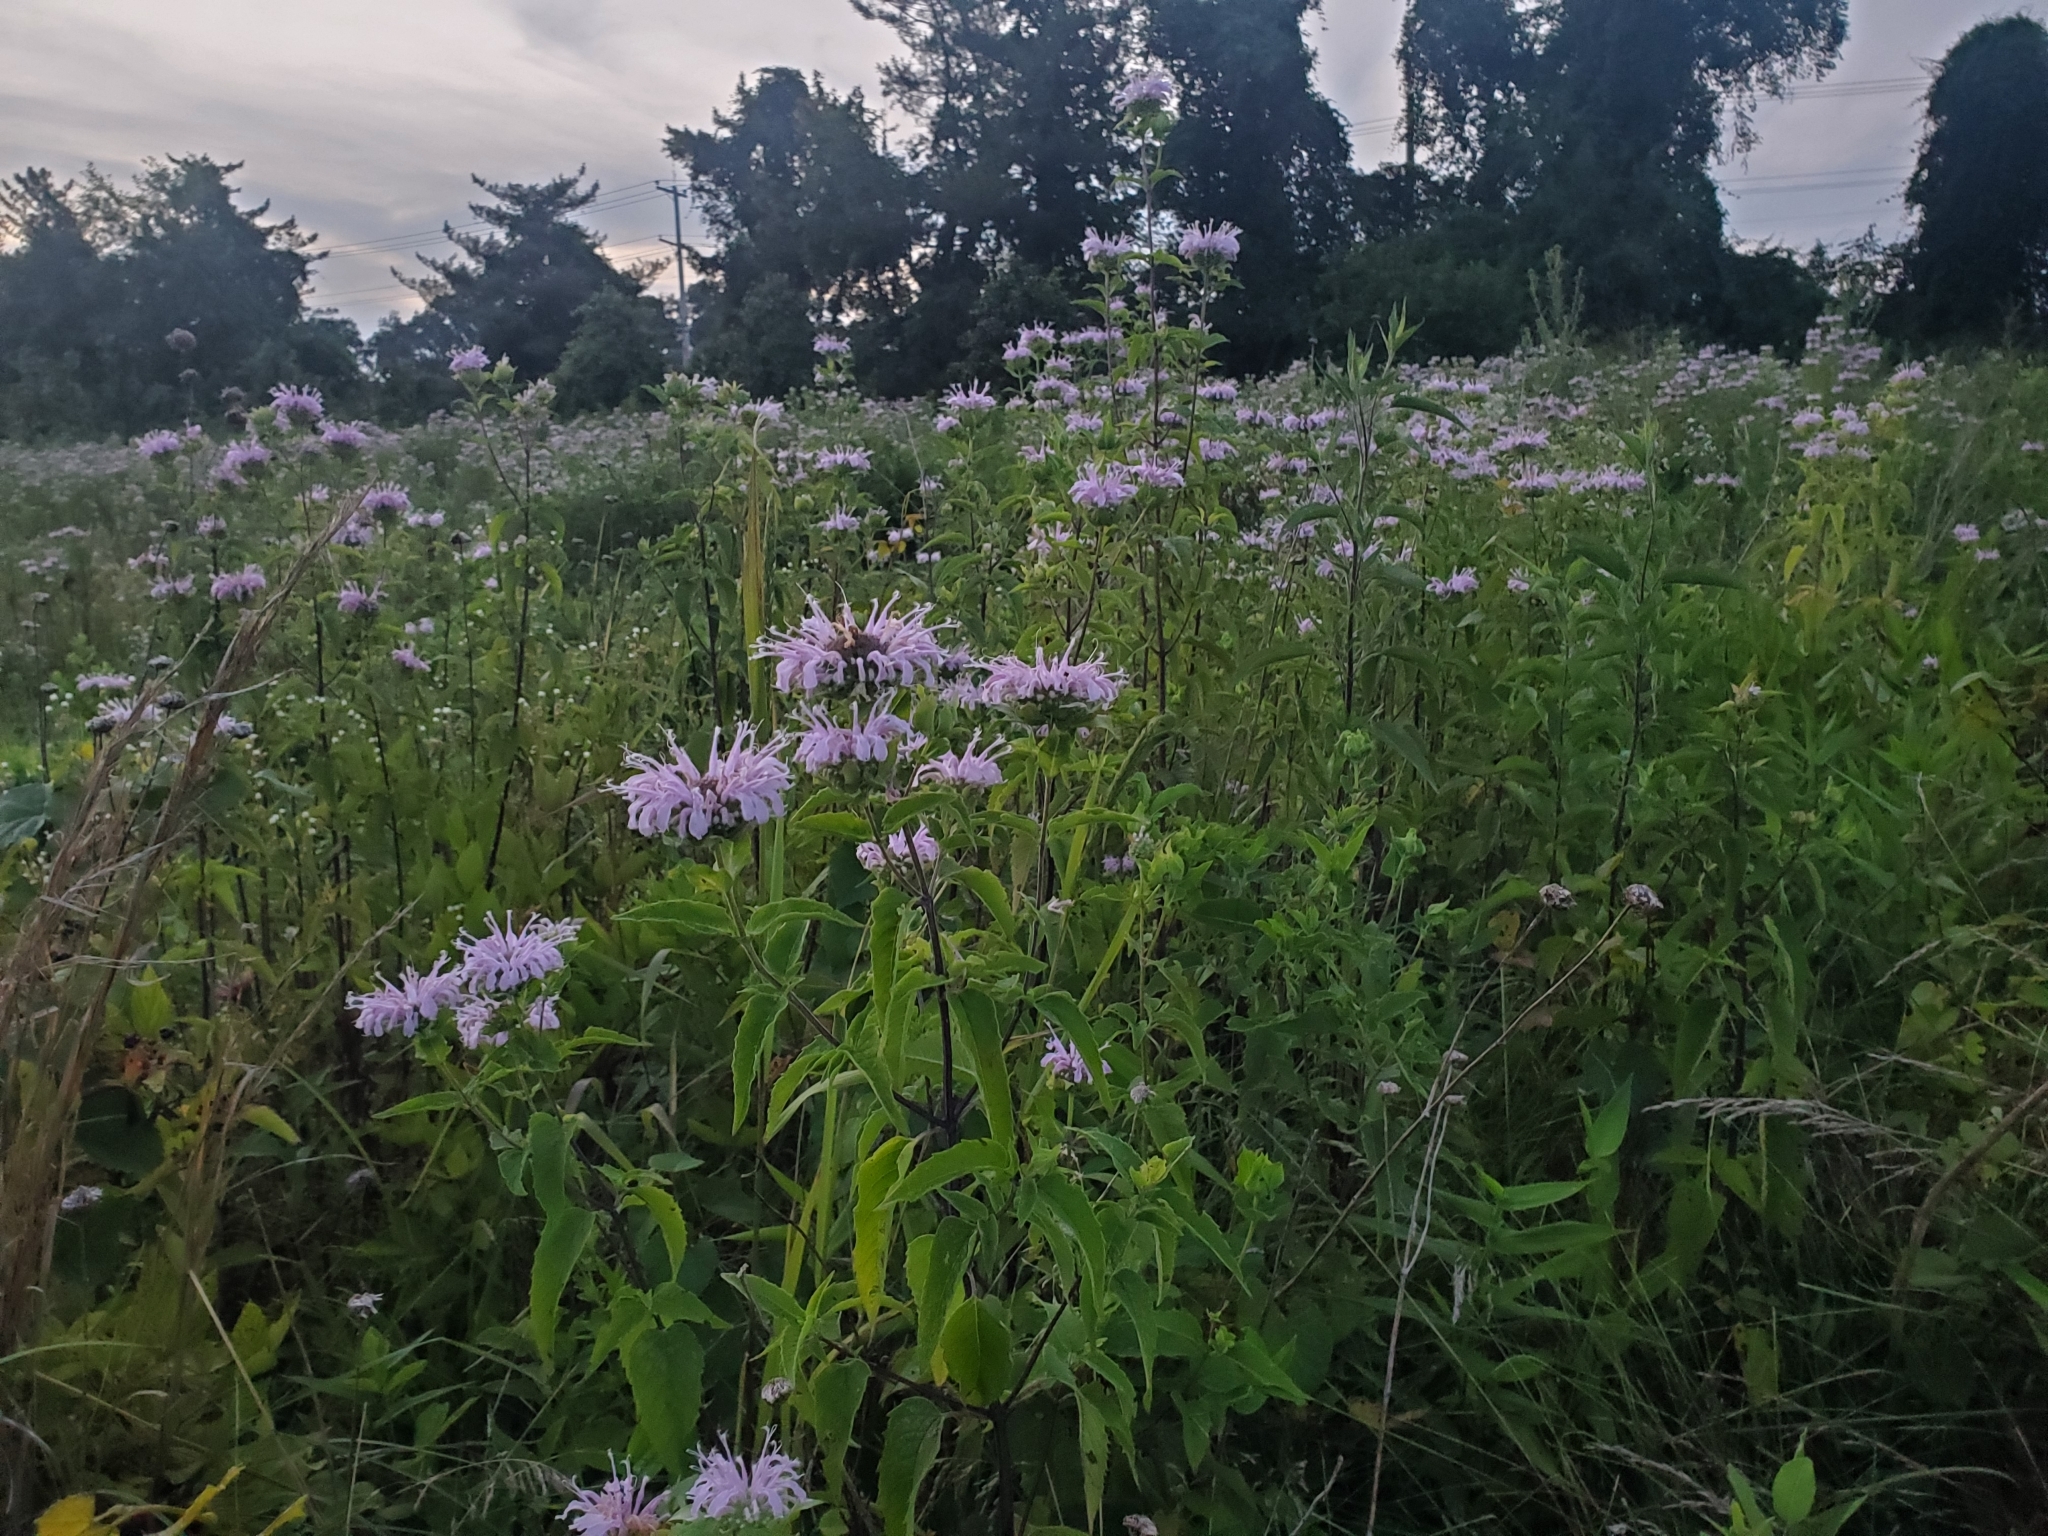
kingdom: Plantae
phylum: Tracheophyta
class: Magnoliopsida
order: Lamiales
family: Lamiaceae
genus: Monarda
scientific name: Monarda fistulosa
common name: Purple beebalm
